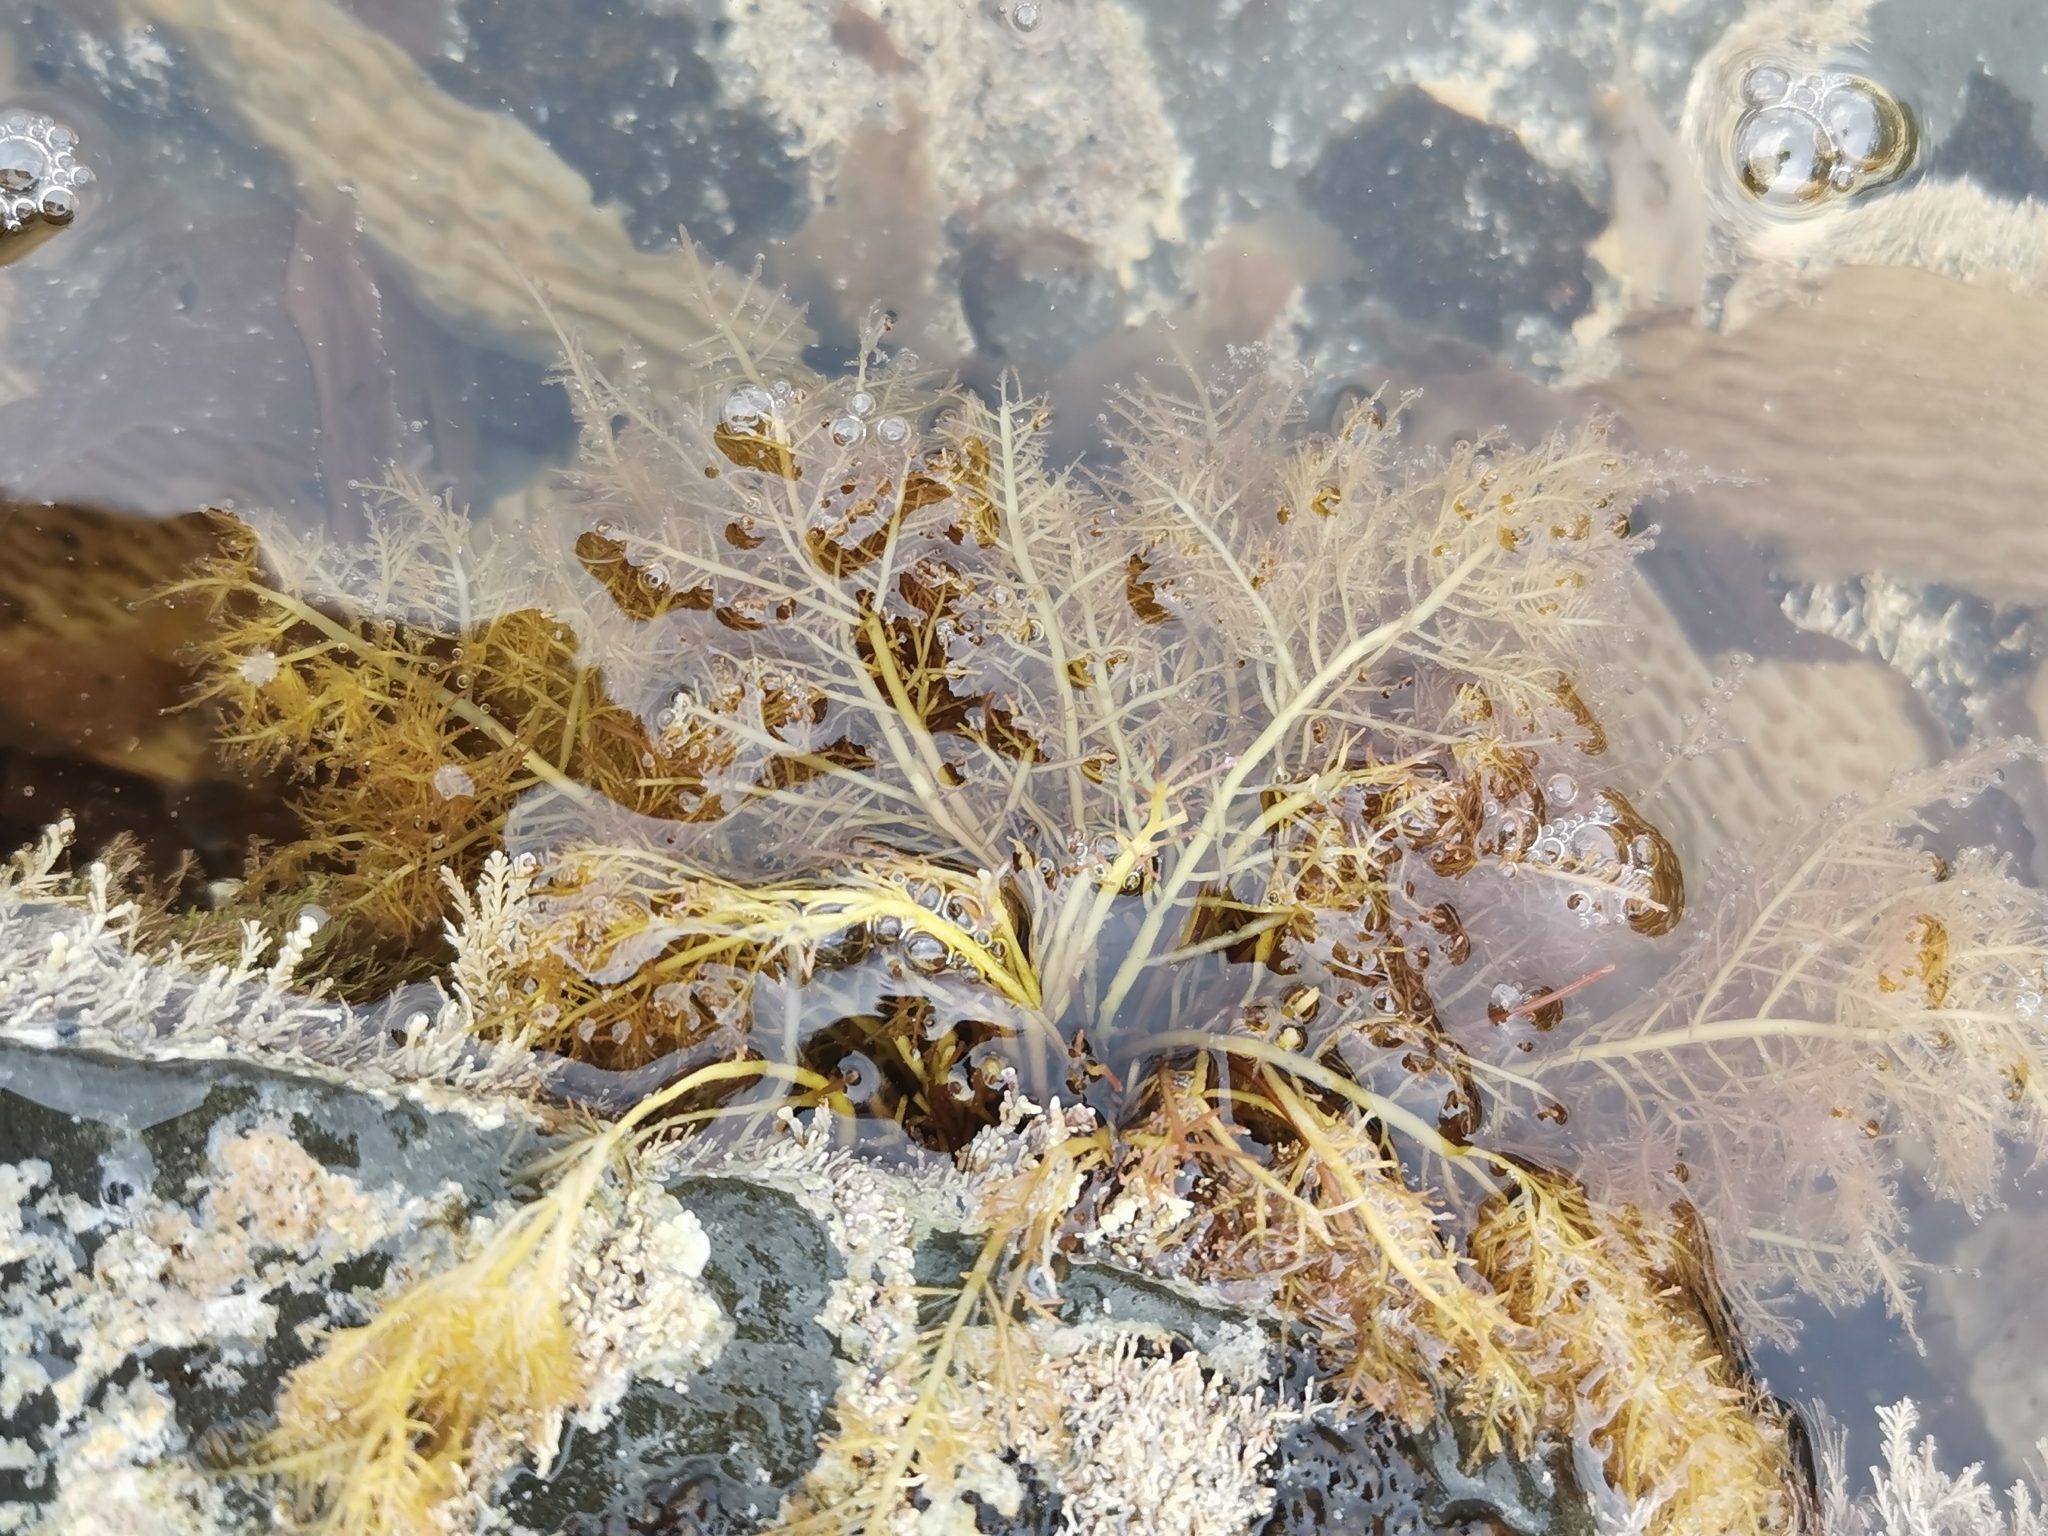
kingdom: Plantae
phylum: Rhodophyta
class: Florideophyceae
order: Gelidiales
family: Pterocladiaceae
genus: Pterocladiella
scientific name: Pterocladiella capillacea
